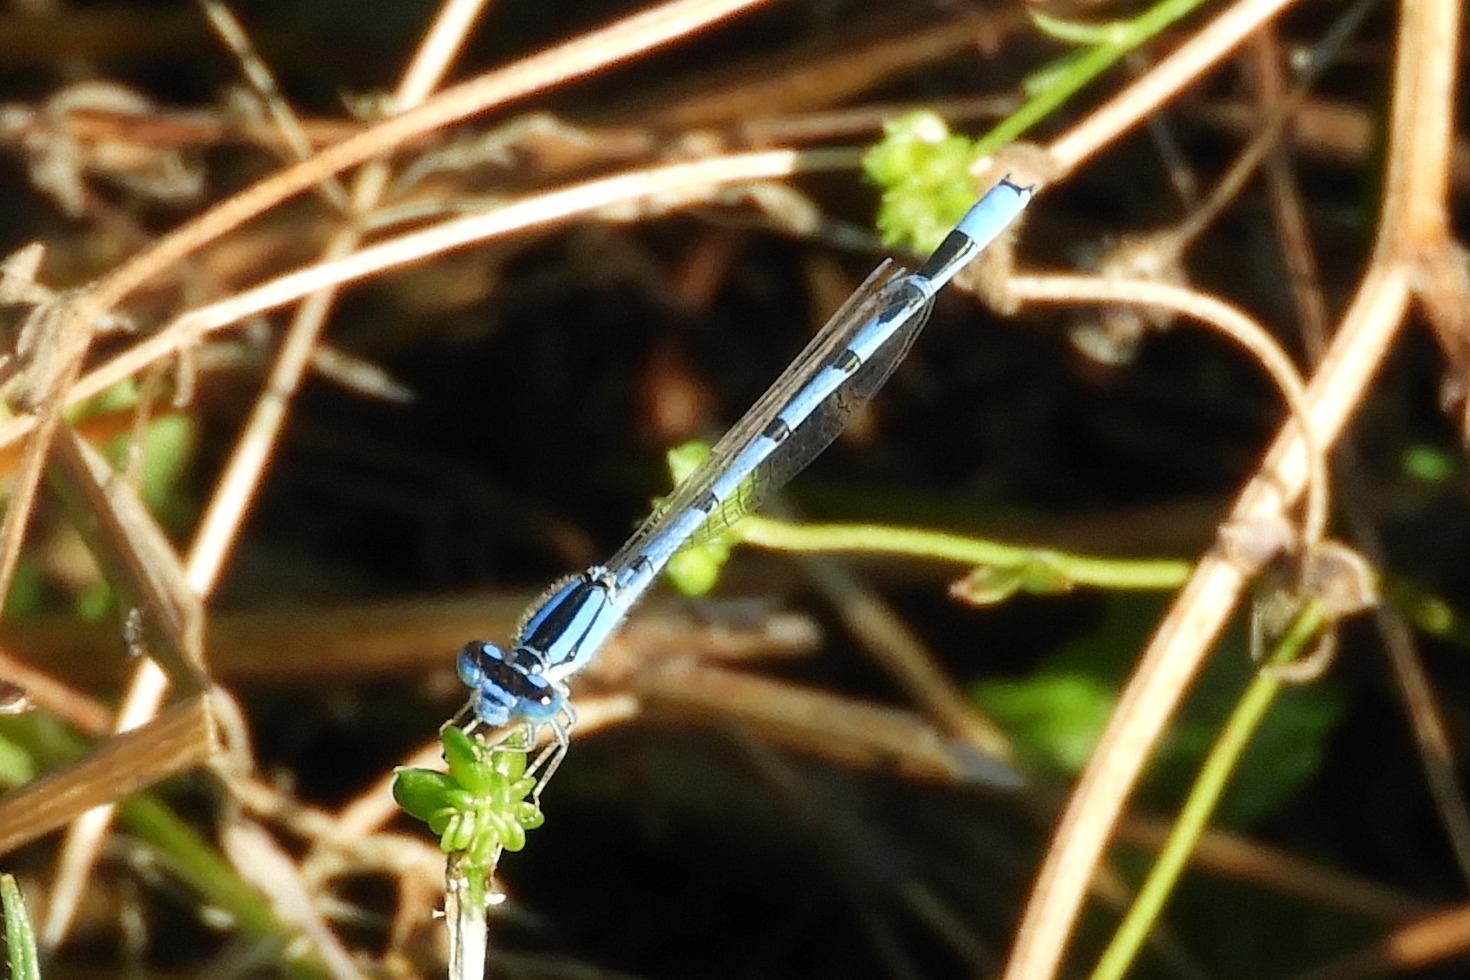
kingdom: Animalia
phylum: Arthropoda
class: Insecta
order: Odonata
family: Coenagrionidae
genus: Enallagma
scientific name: Enallagma civile
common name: Damselfly
